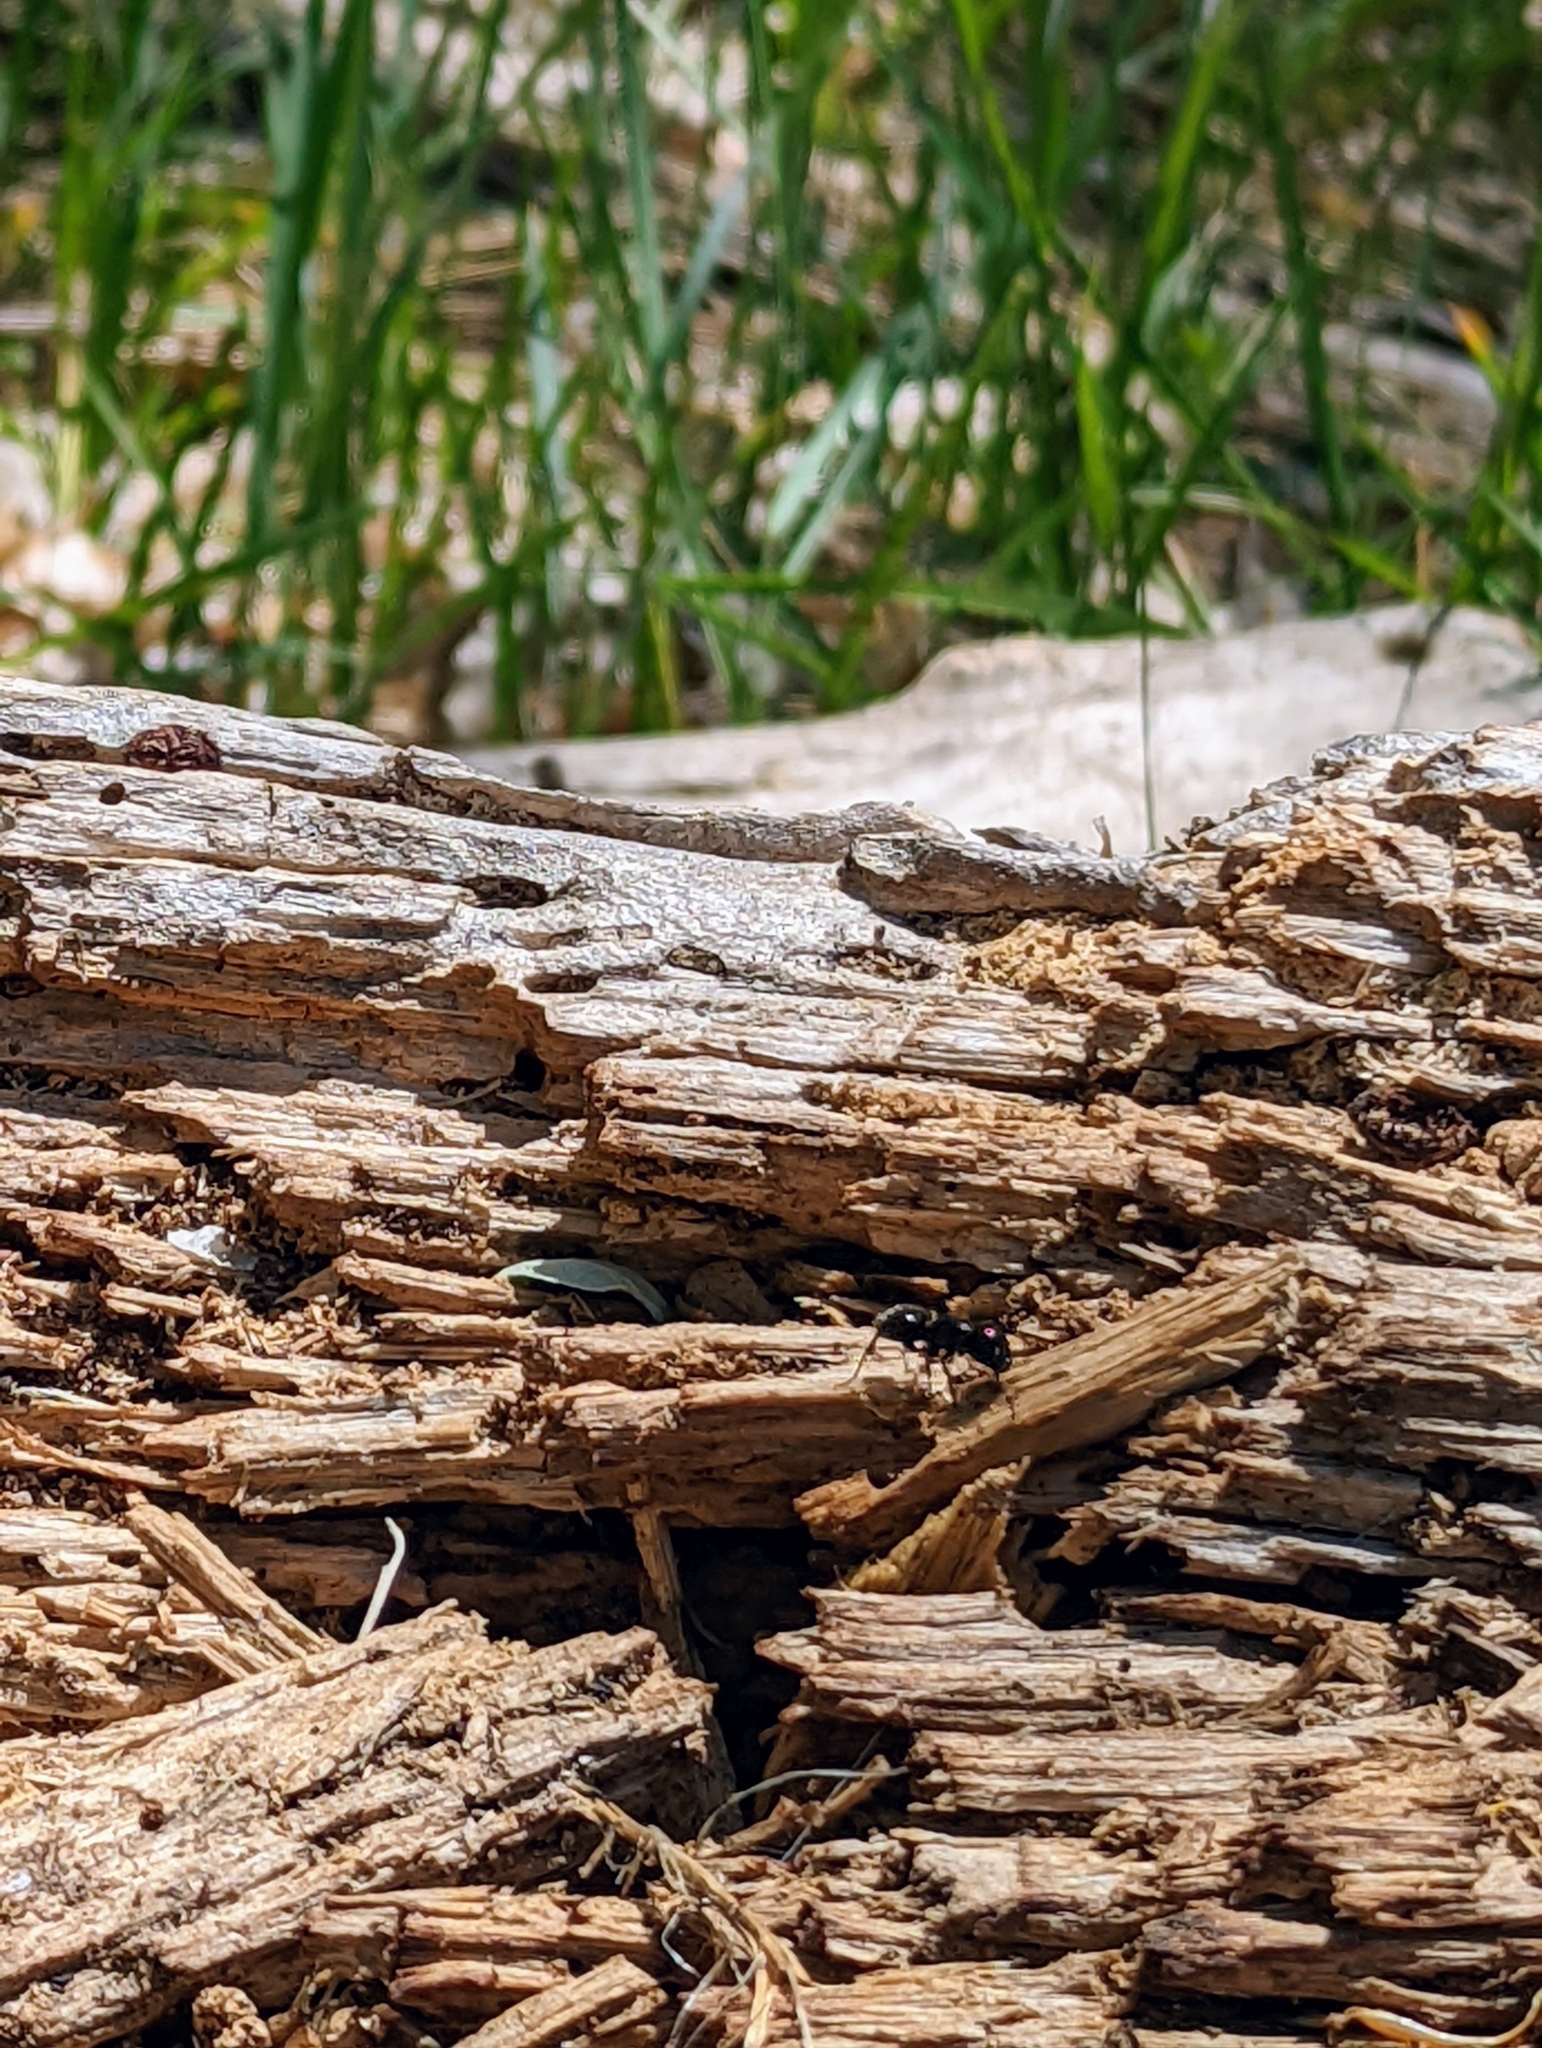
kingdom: Animalia
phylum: Arthropoda
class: Insecta
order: Hymenoptera
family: Formicidae
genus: Camponotus
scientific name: Camponotus
